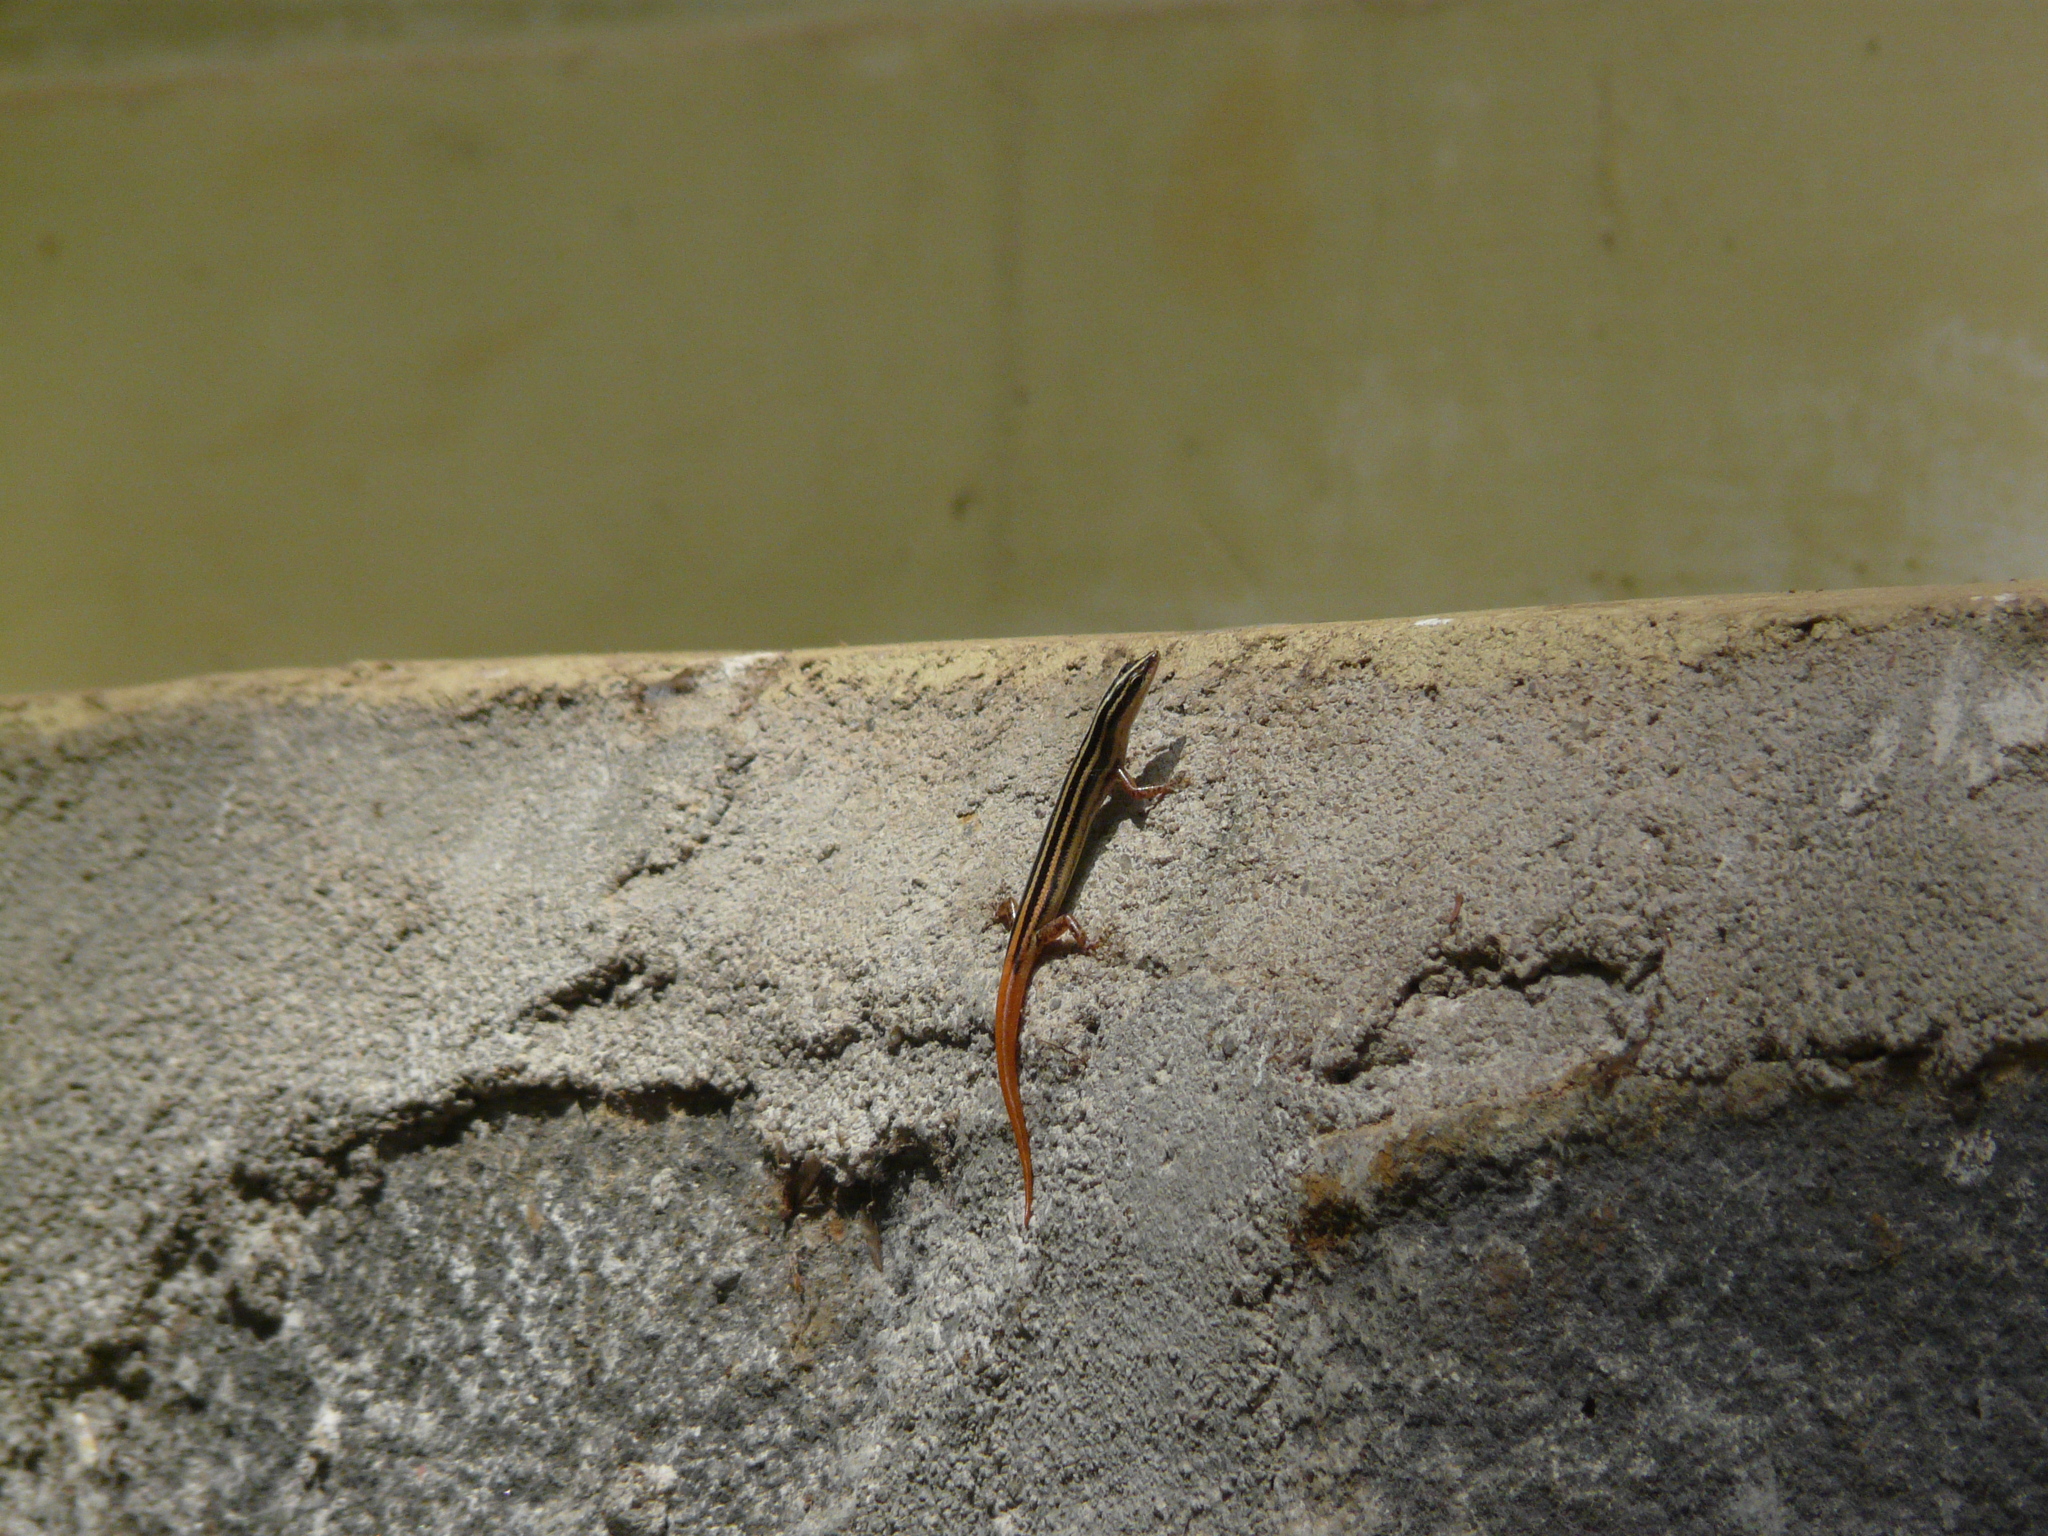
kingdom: Animalia
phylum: Chordata
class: Squamata
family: Scincidae
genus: Lipinia
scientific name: Lipinia microcerca
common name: Banded lipinia
